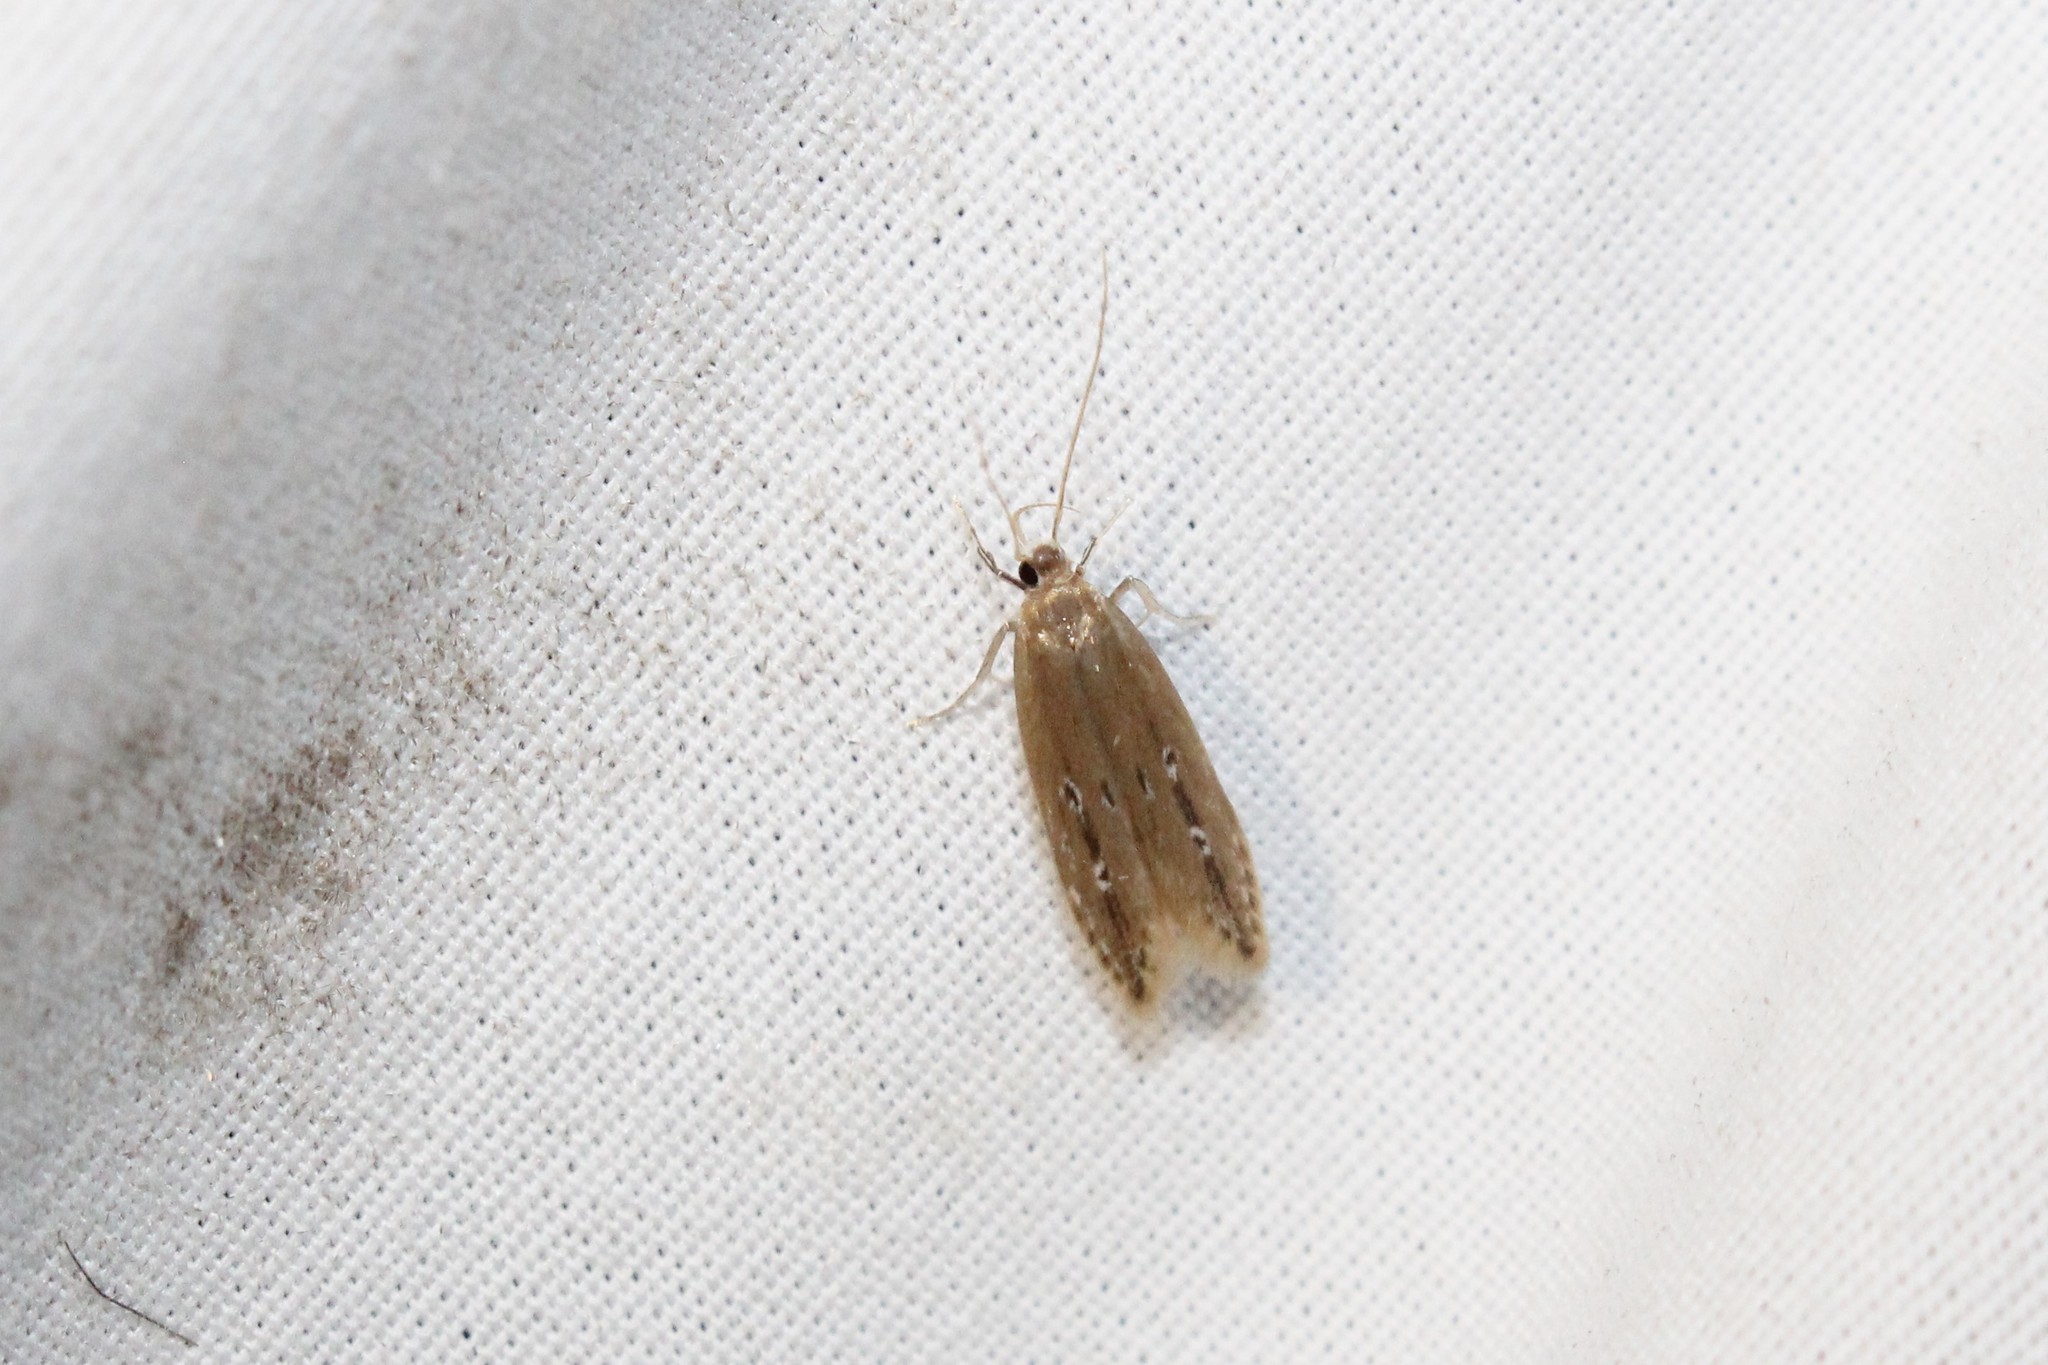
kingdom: Animalia
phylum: Arthropoda
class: Insecta
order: Lepidoptera
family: Cosmopterigidae
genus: Limnaecia
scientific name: Limnaecia phragmitella
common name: Bulrush cosmet
